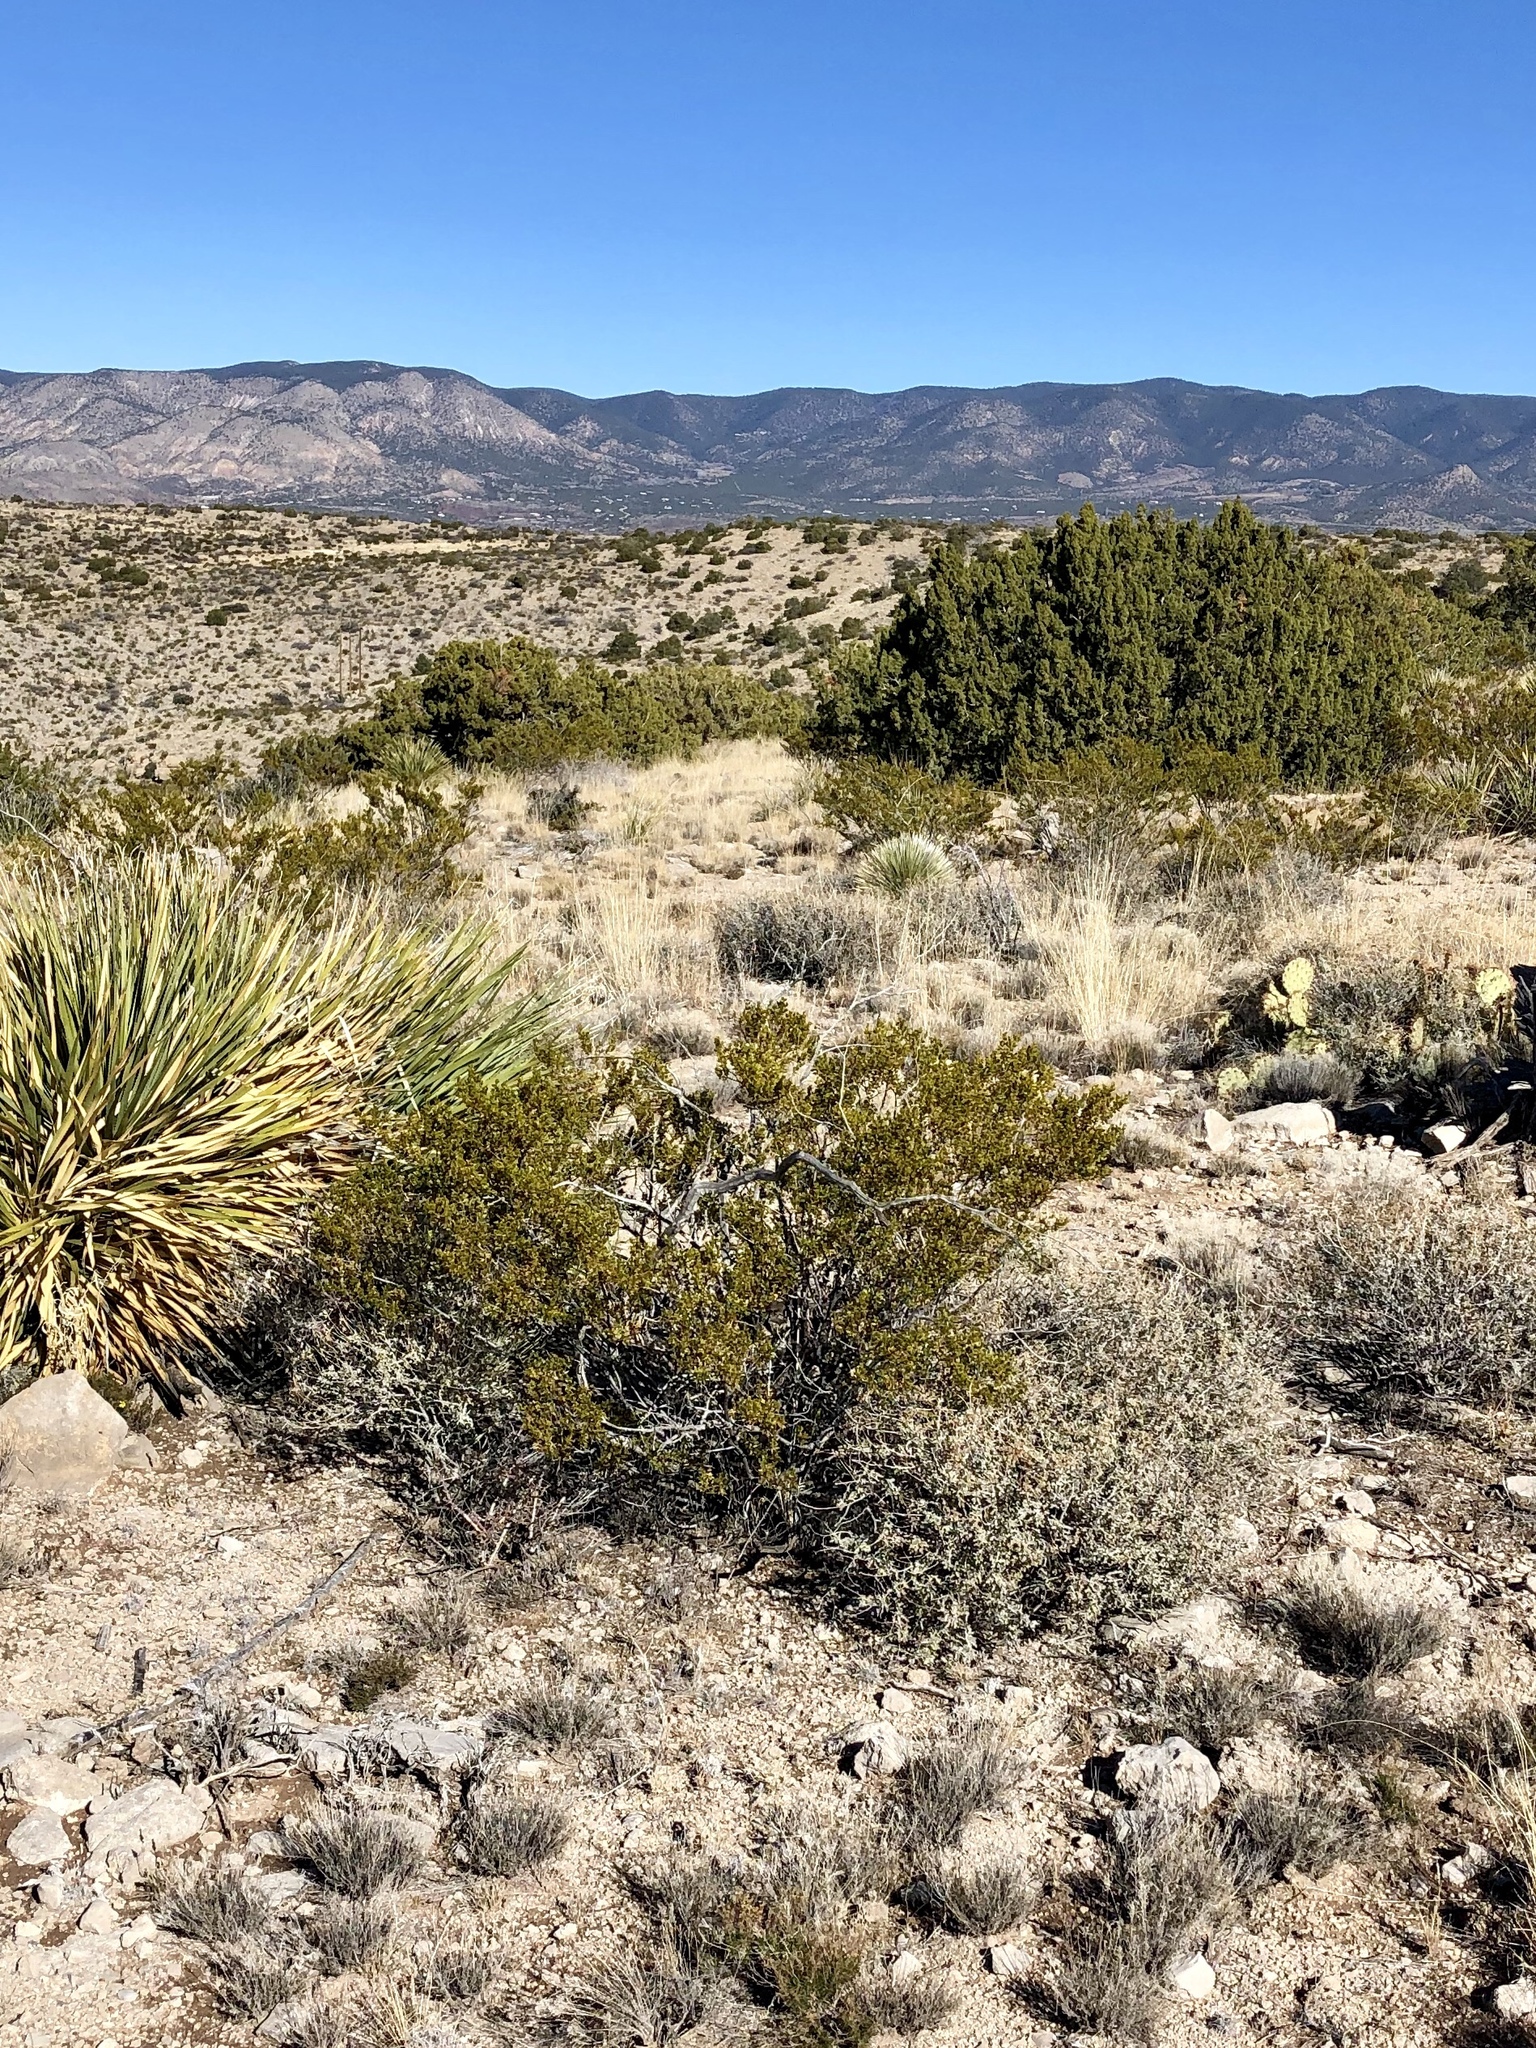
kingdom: Plantae
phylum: Tracheophyta
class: Magnoliopsida
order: Zygophyllales
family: Zygophyllaceae
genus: Larrea
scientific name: Larrea tridentata
